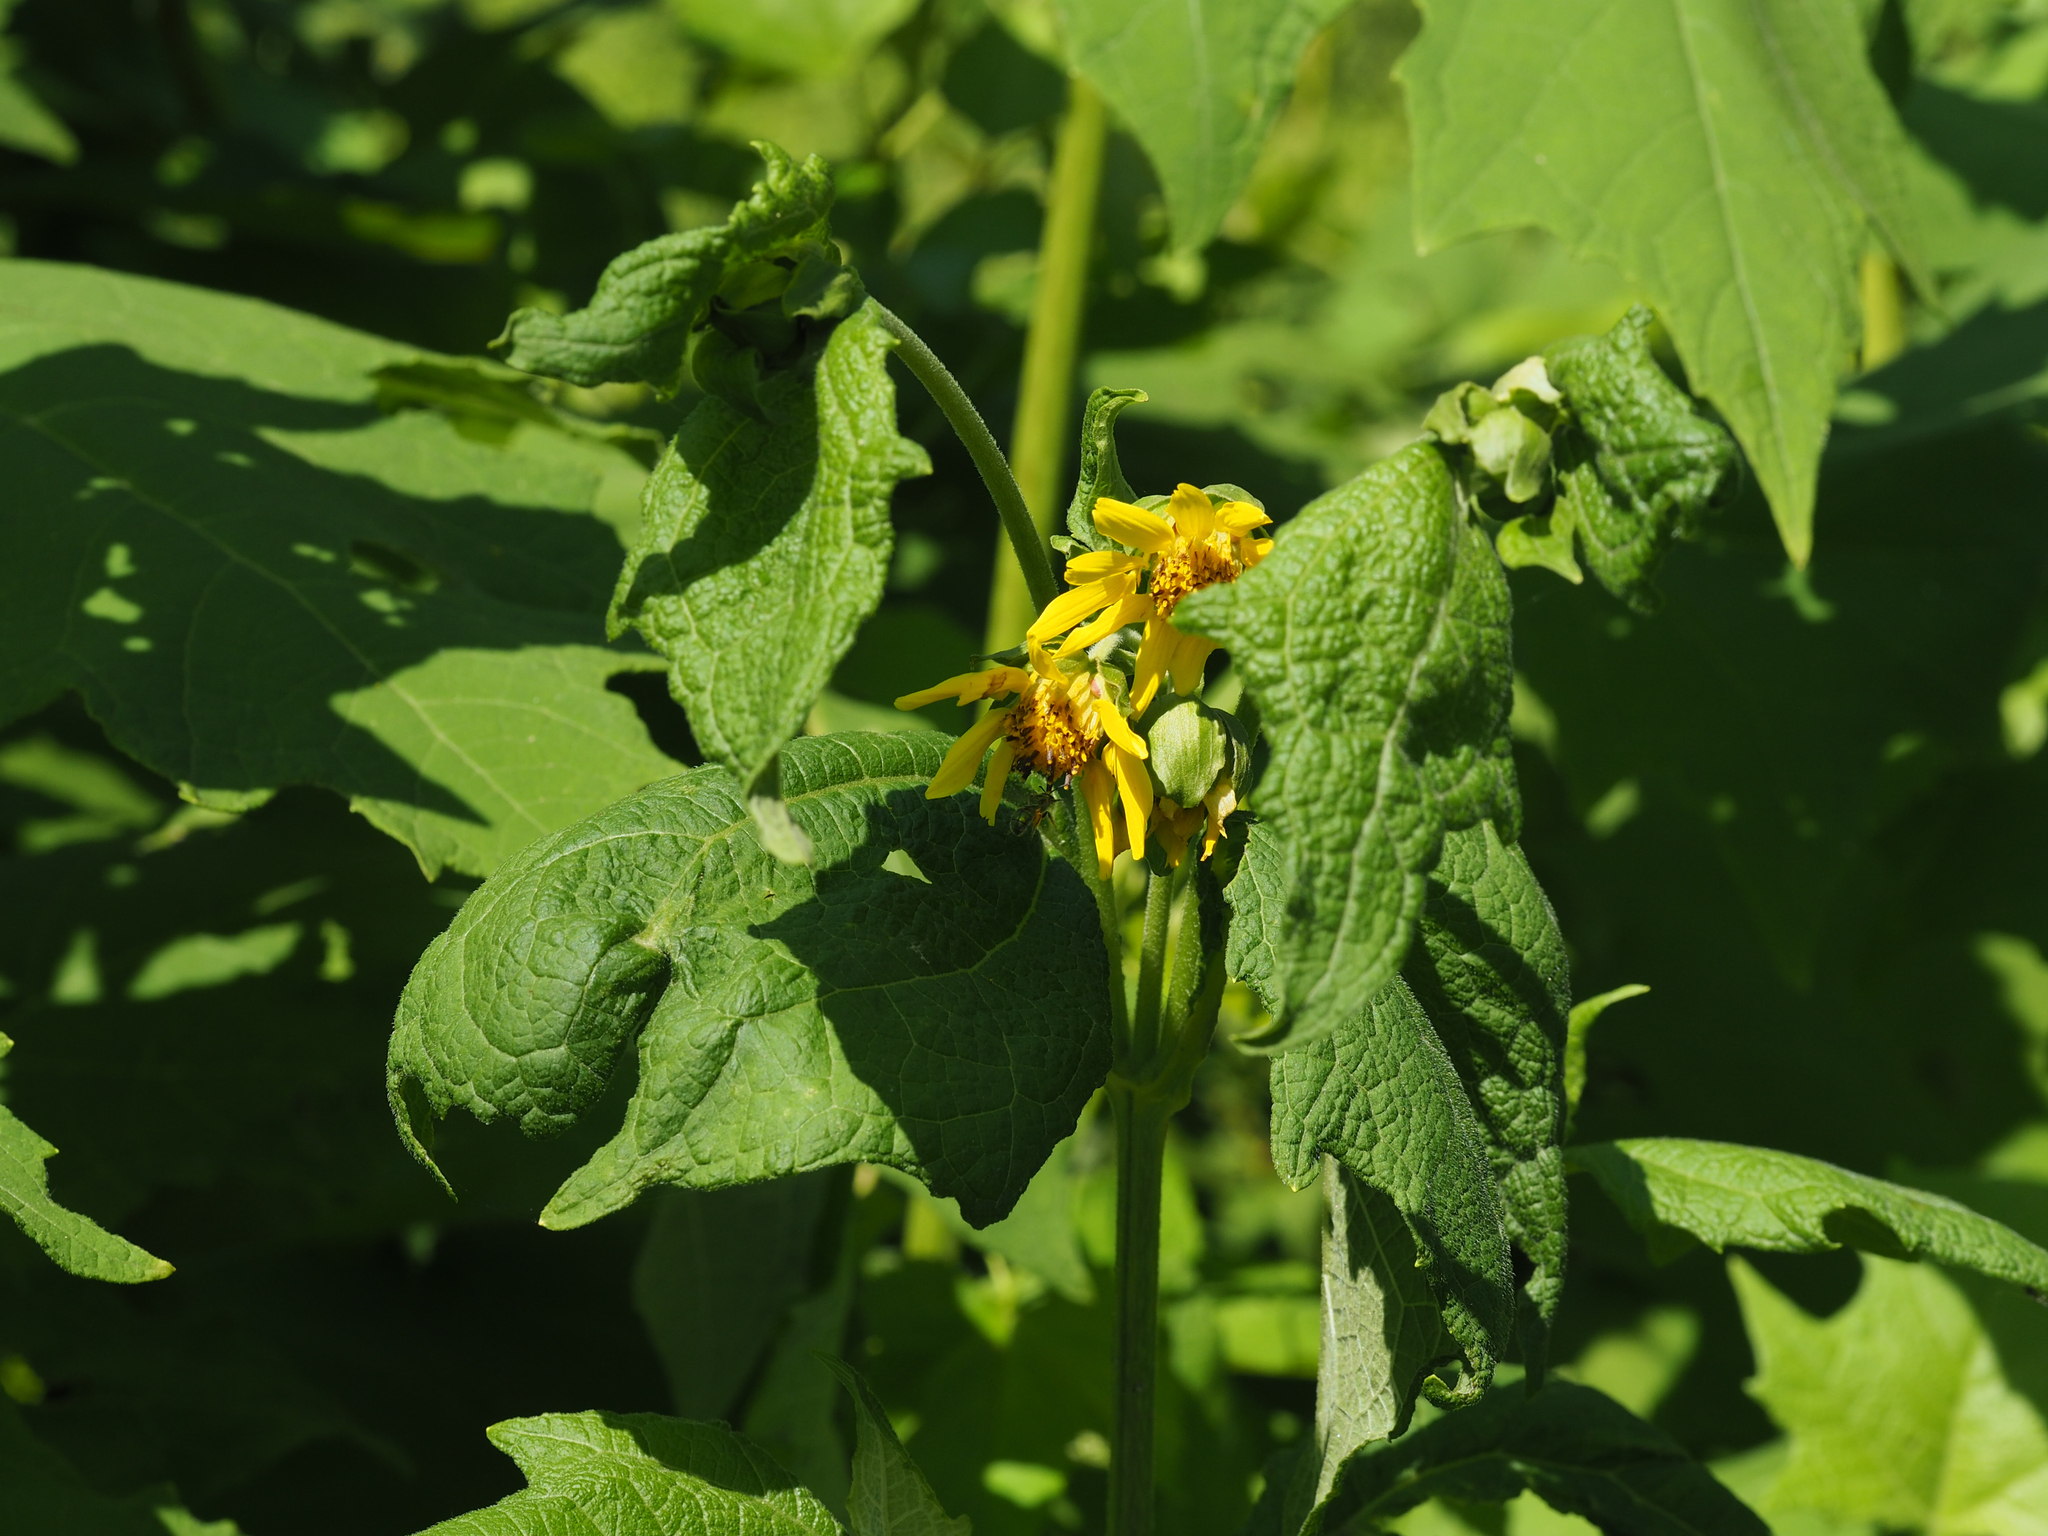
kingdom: Plantae
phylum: Tracheophyta
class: Magnoliopsida
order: Asterales
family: Asteraceae
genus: Smallanthus
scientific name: Smallanthus uvedalia
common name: Bear's-foot
